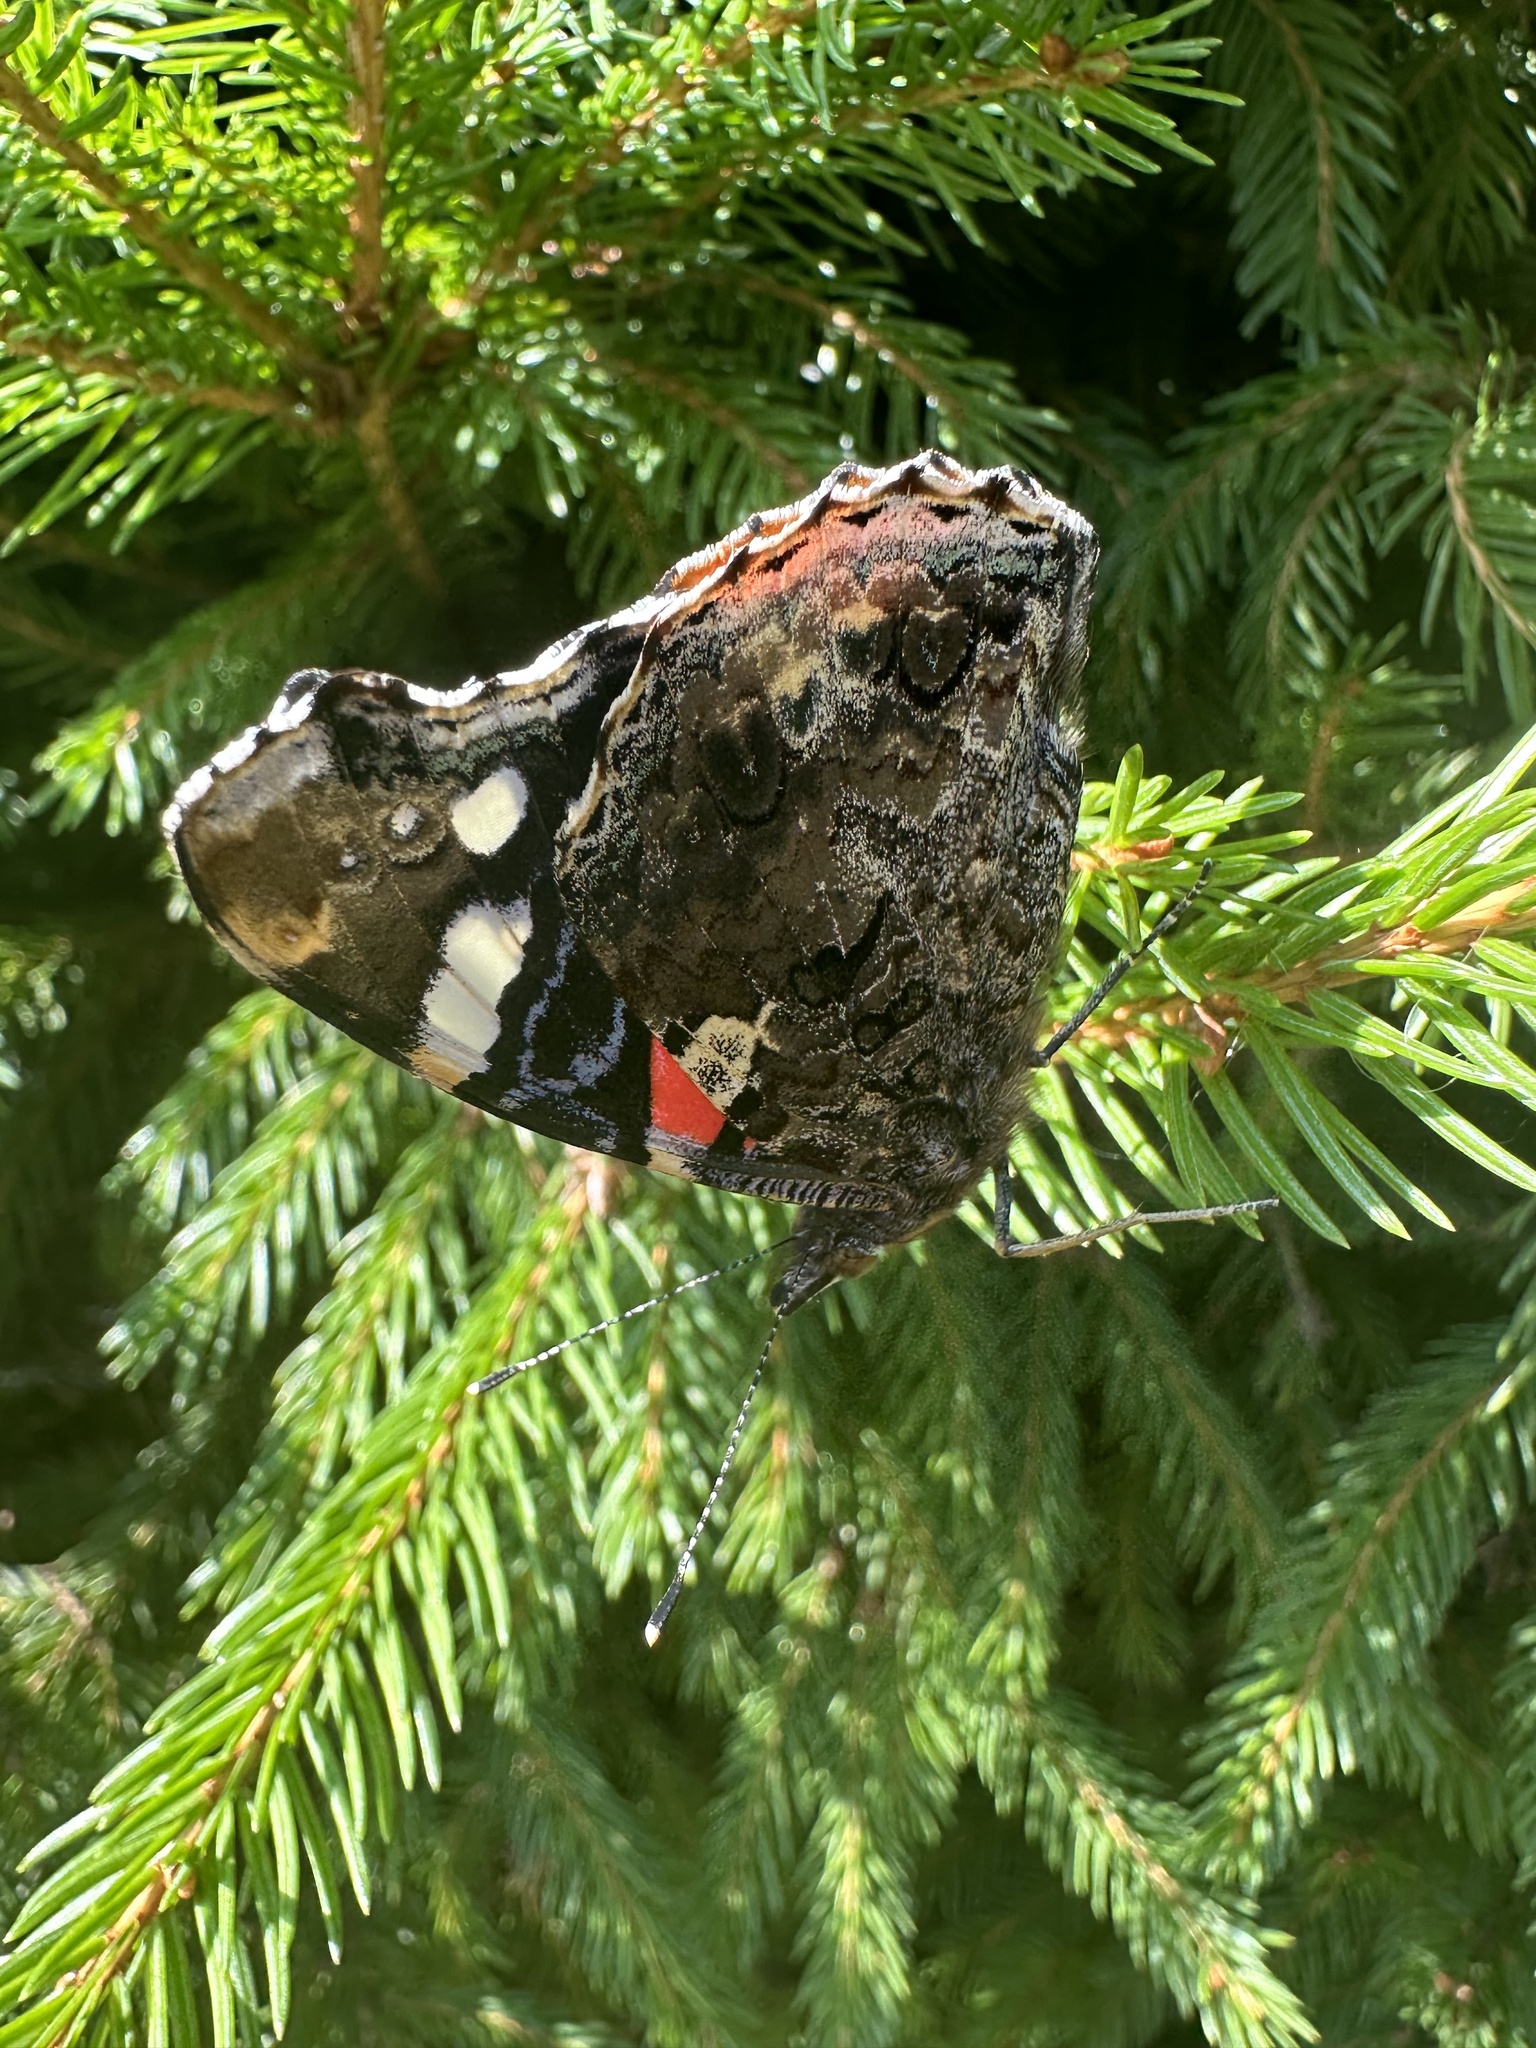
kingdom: Animalia
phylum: Arthropoda
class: Insecta
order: Lepidoptera
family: Nymphalidae
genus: Vanessa
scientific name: Vanessa atalanta
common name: Red admiral
